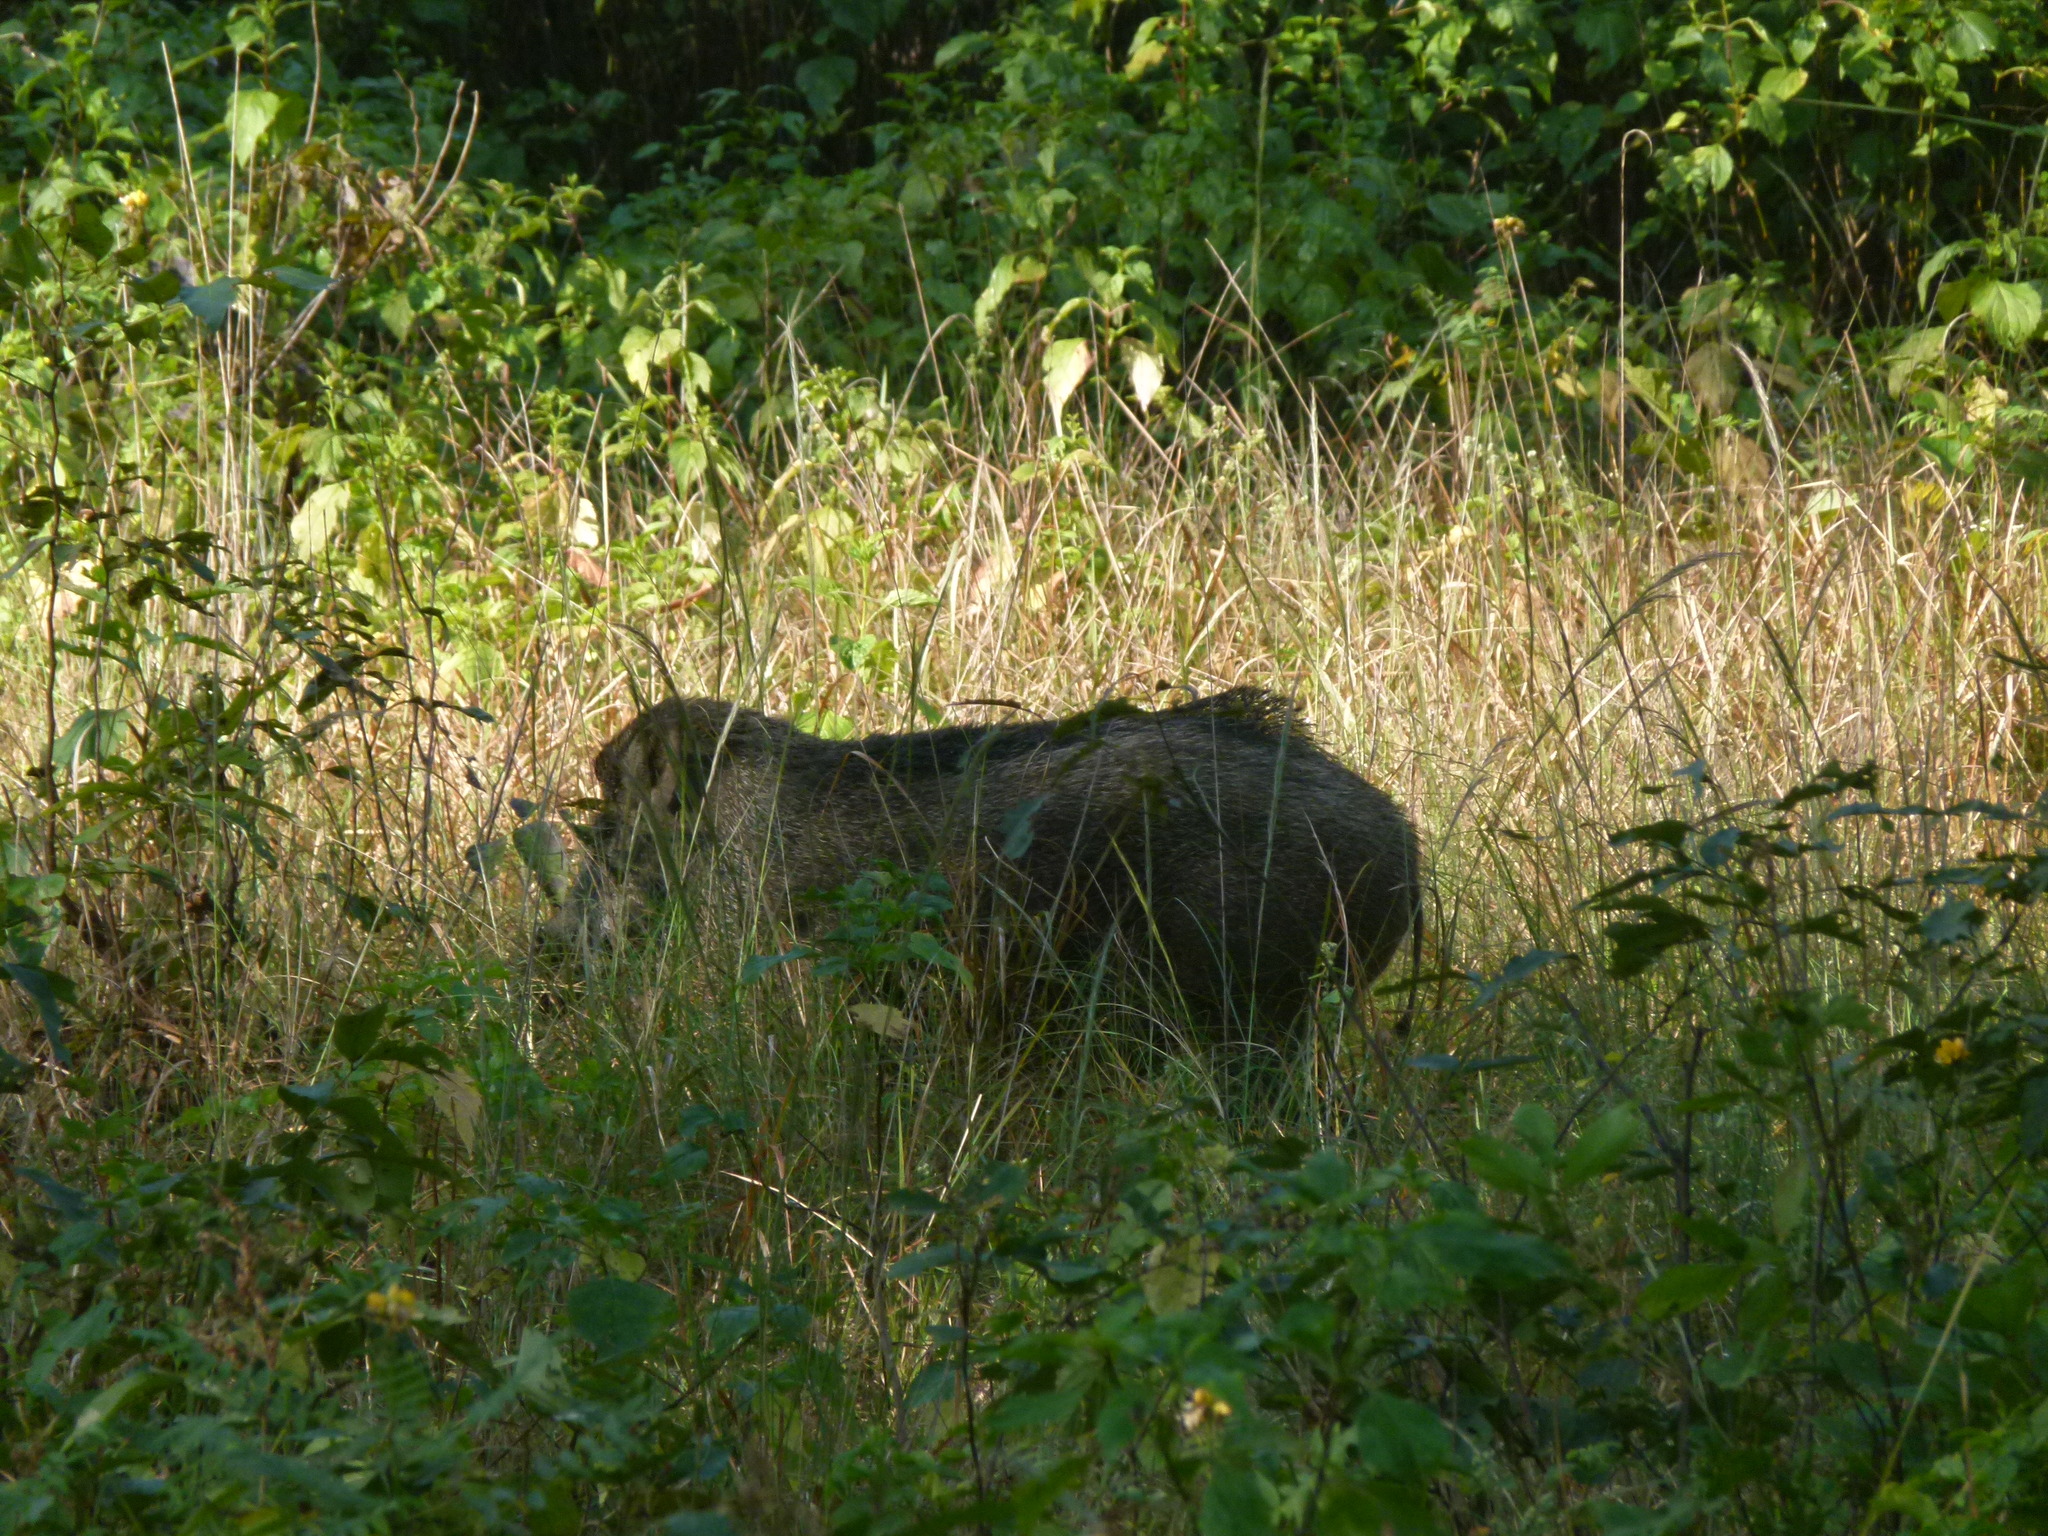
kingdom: Animalia
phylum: Chordata
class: Mammalia
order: Artiodactyla
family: Suidae
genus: Sus
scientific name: Sus scrofa
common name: Wild boar
